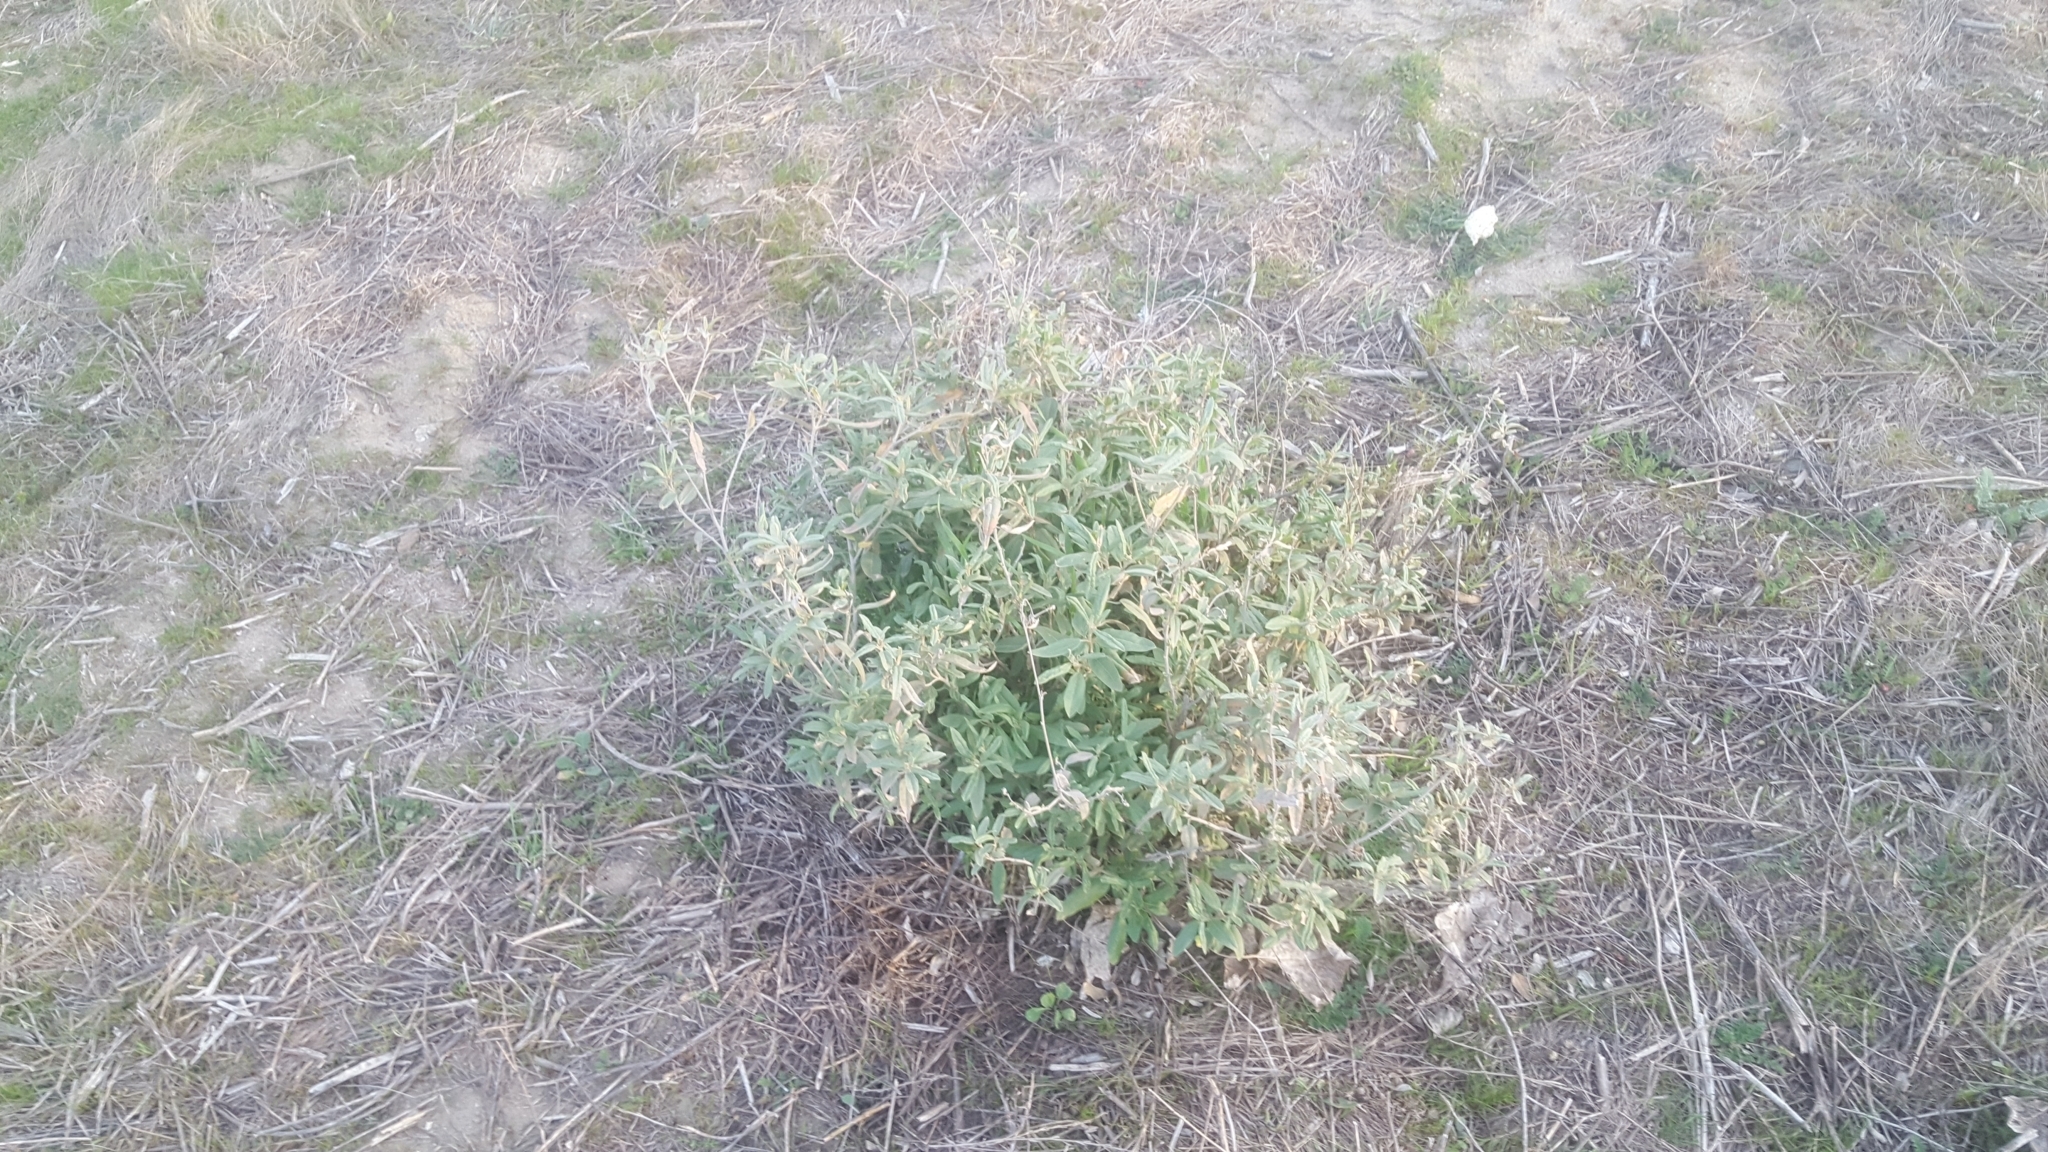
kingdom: Plantae
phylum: Tracheophyta
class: Magnoliopsida
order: Malpighiales
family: Euphorbiaceae
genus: Croton
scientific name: Croton californicus
